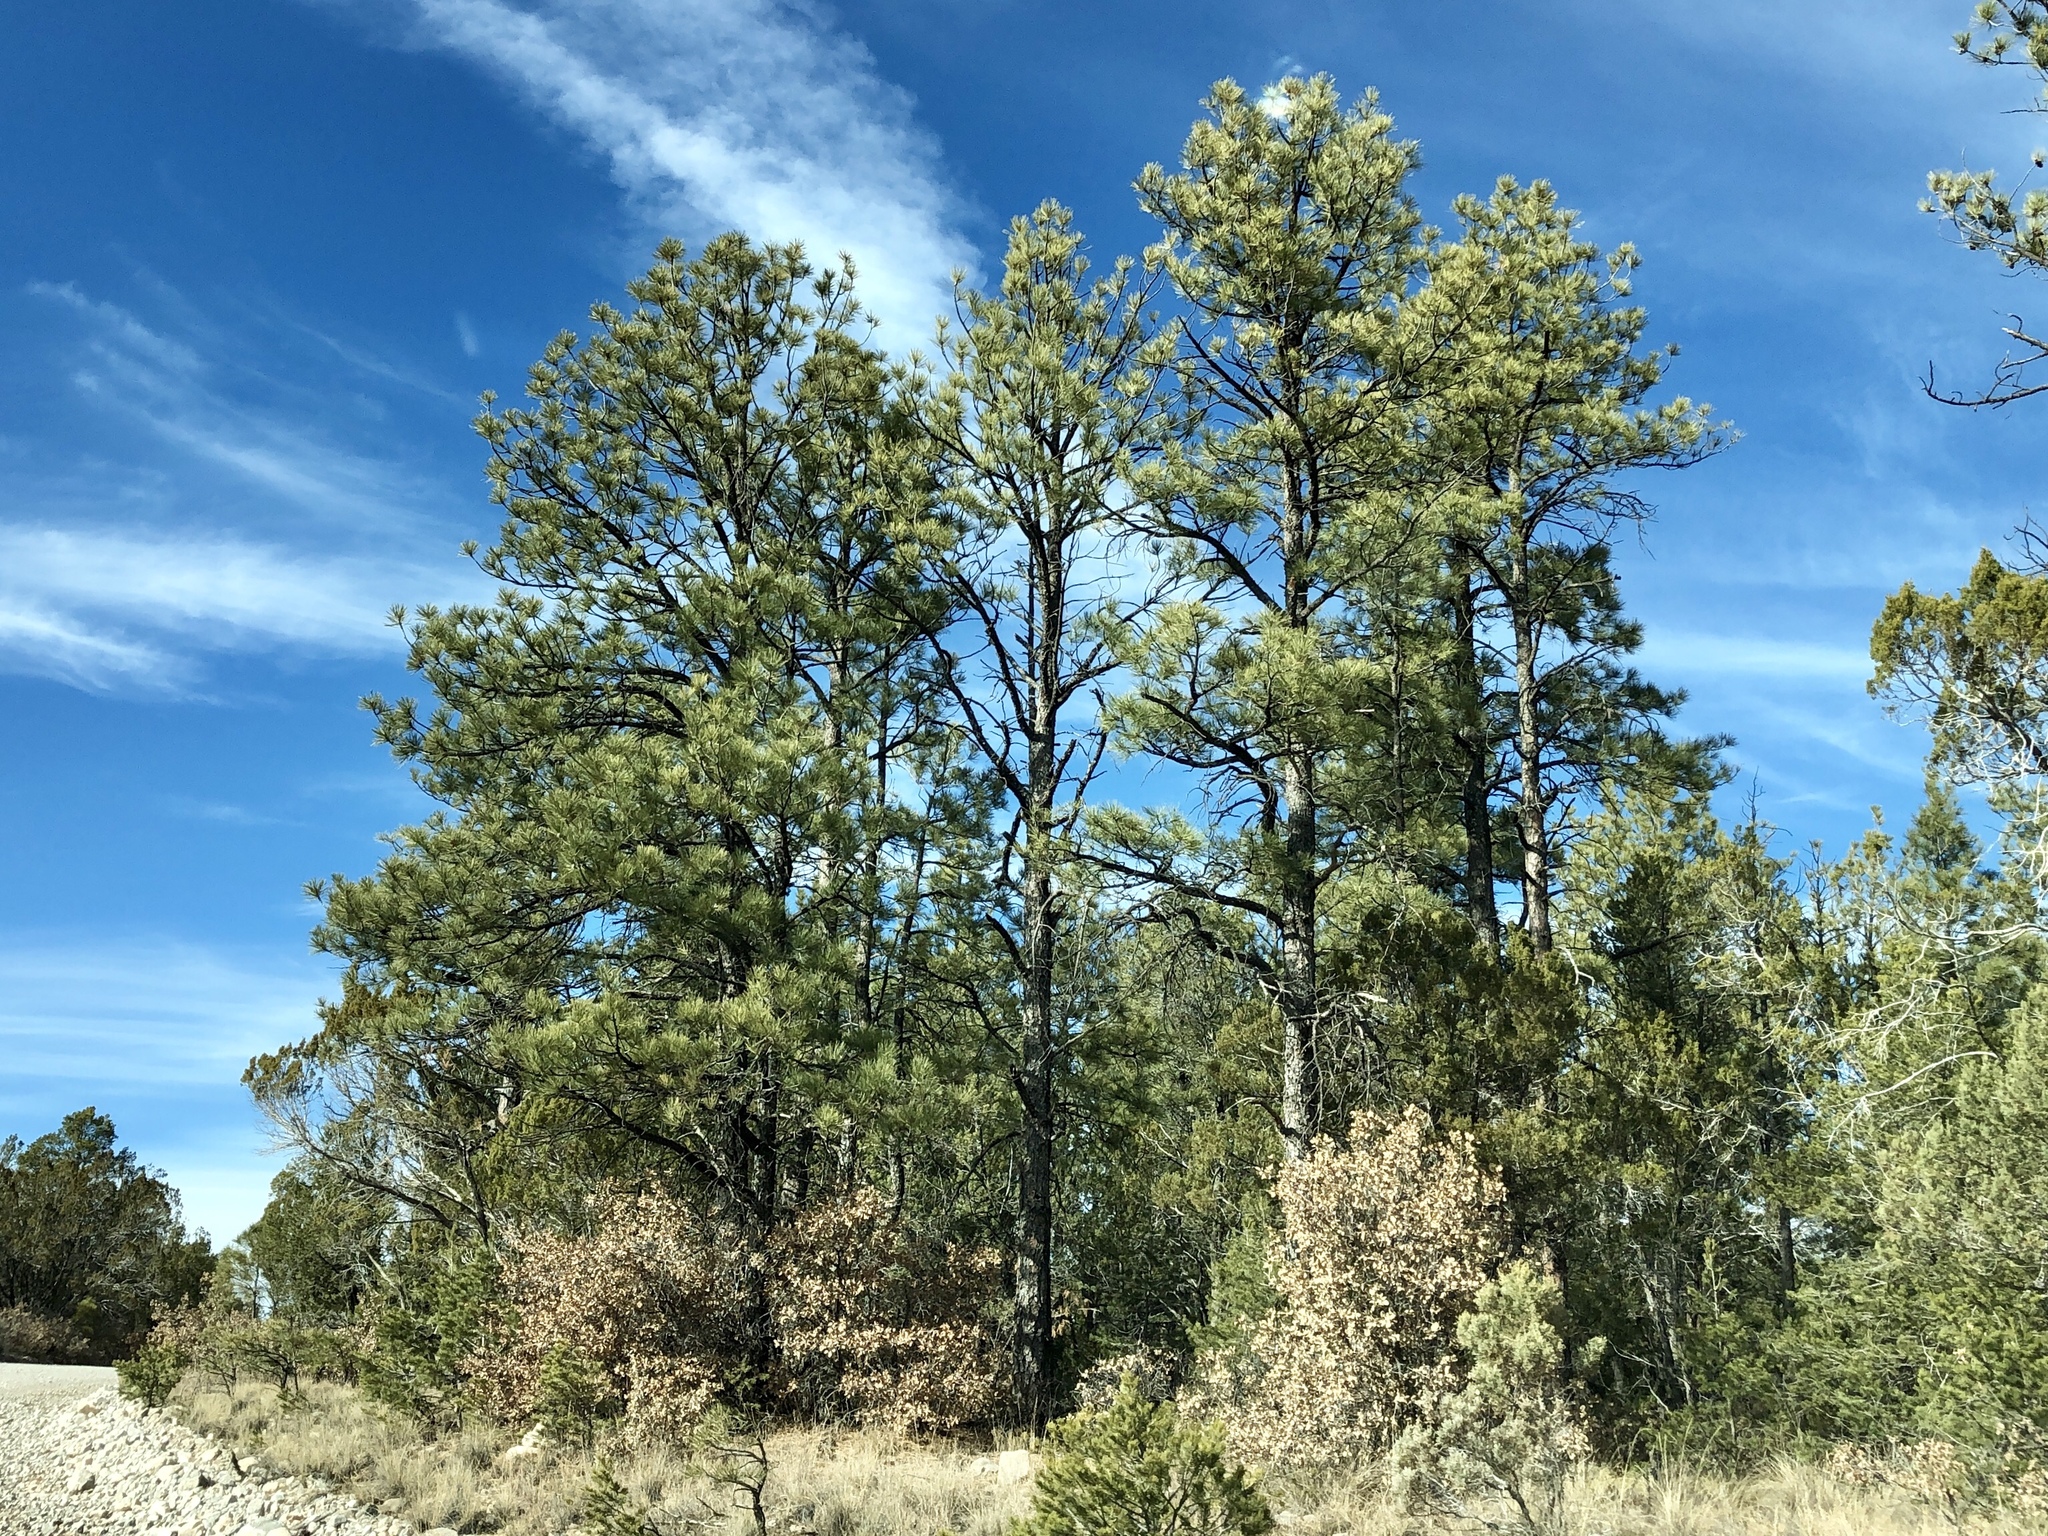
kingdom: Plantae
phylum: Tracheophyta
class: Pinopsida
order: Pinales
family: Pinaceae
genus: Pinus
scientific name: Pinus ponderosa
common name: Western yellow-pine
